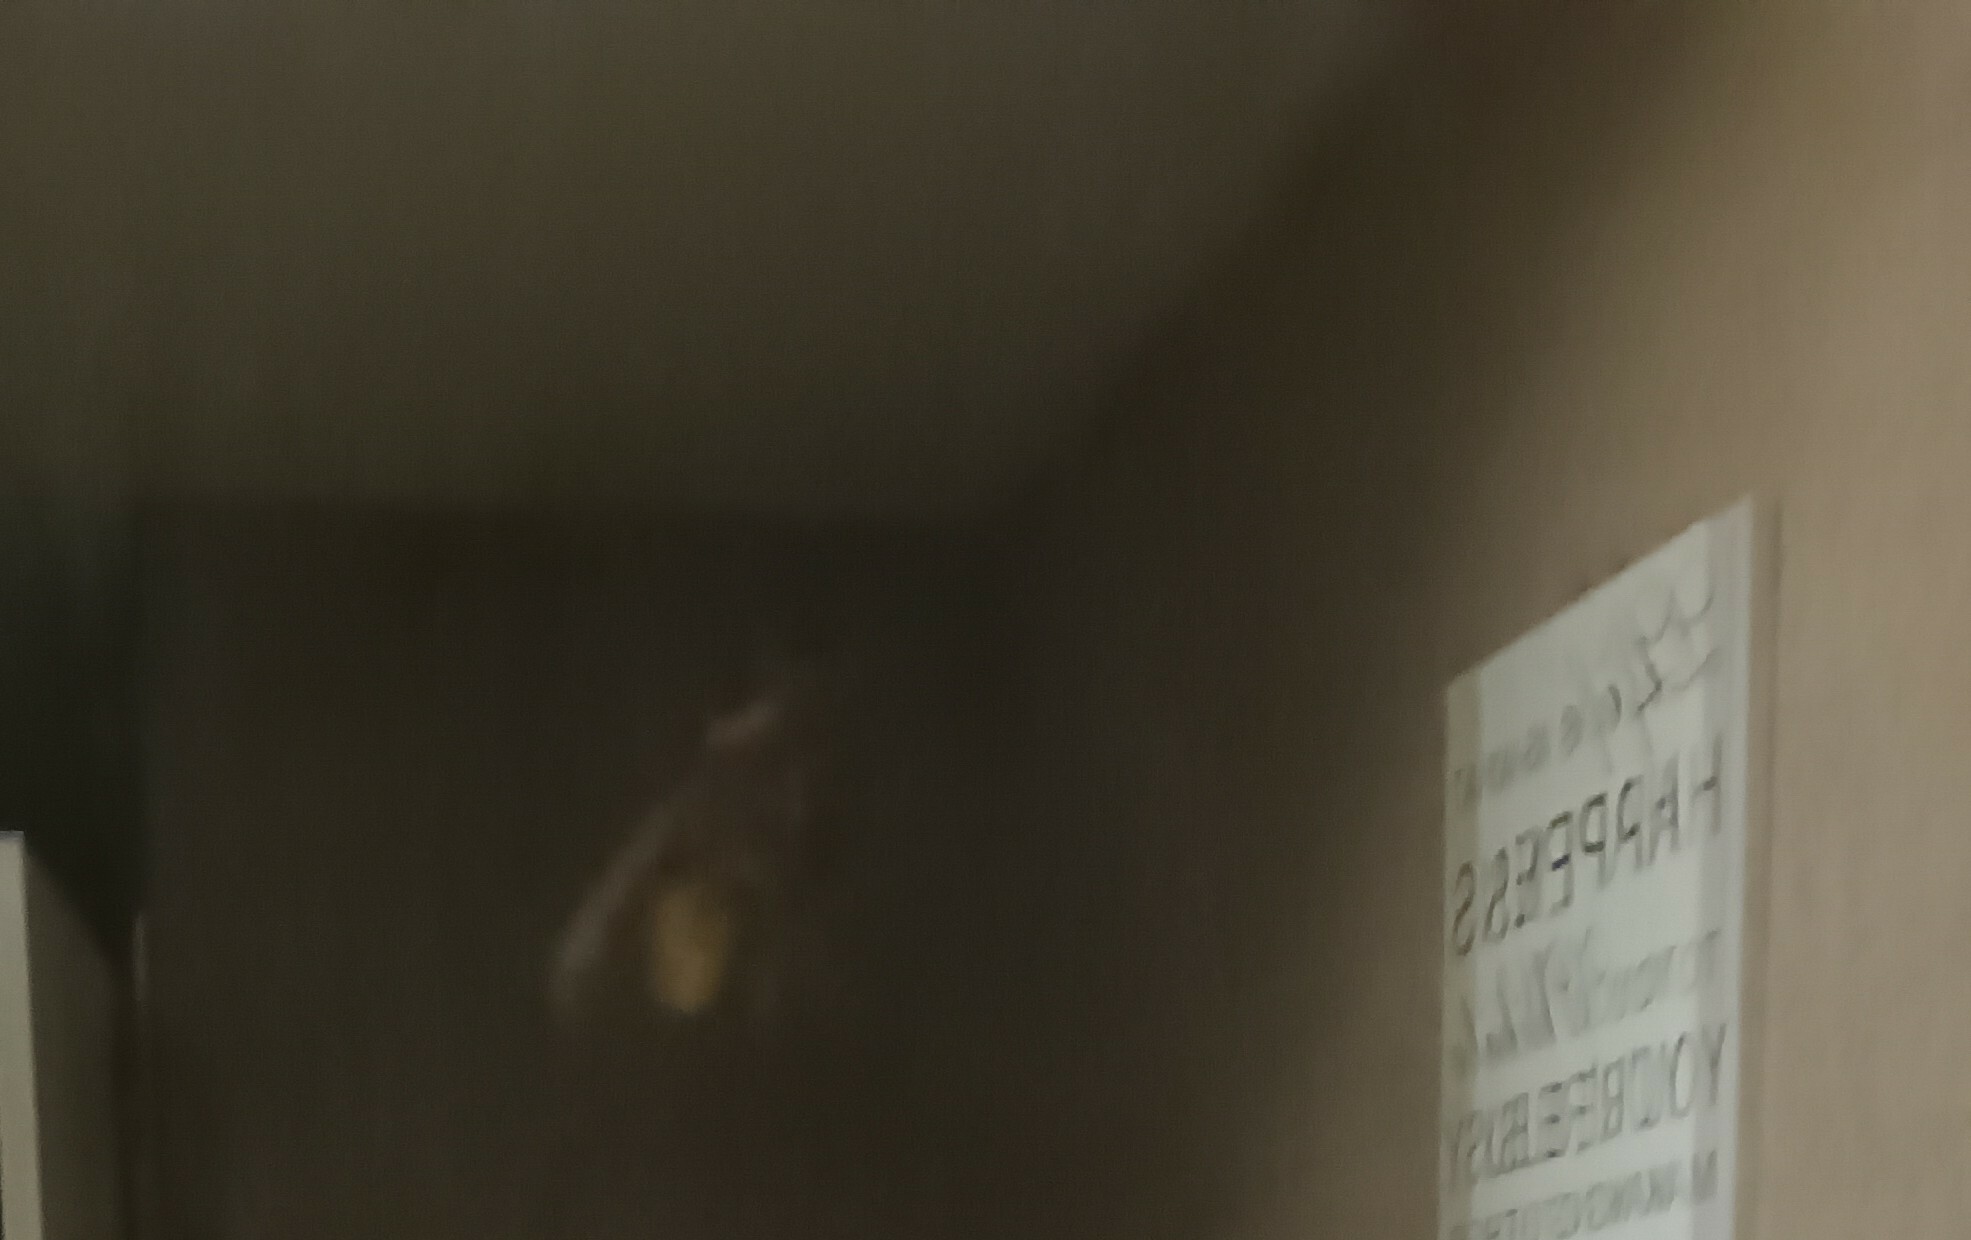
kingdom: Animalia
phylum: Arthropoda
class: Insecta
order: Hymenoptera
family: Vespidae
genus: Vespa
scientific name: Vespa crabro
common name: Hornet
